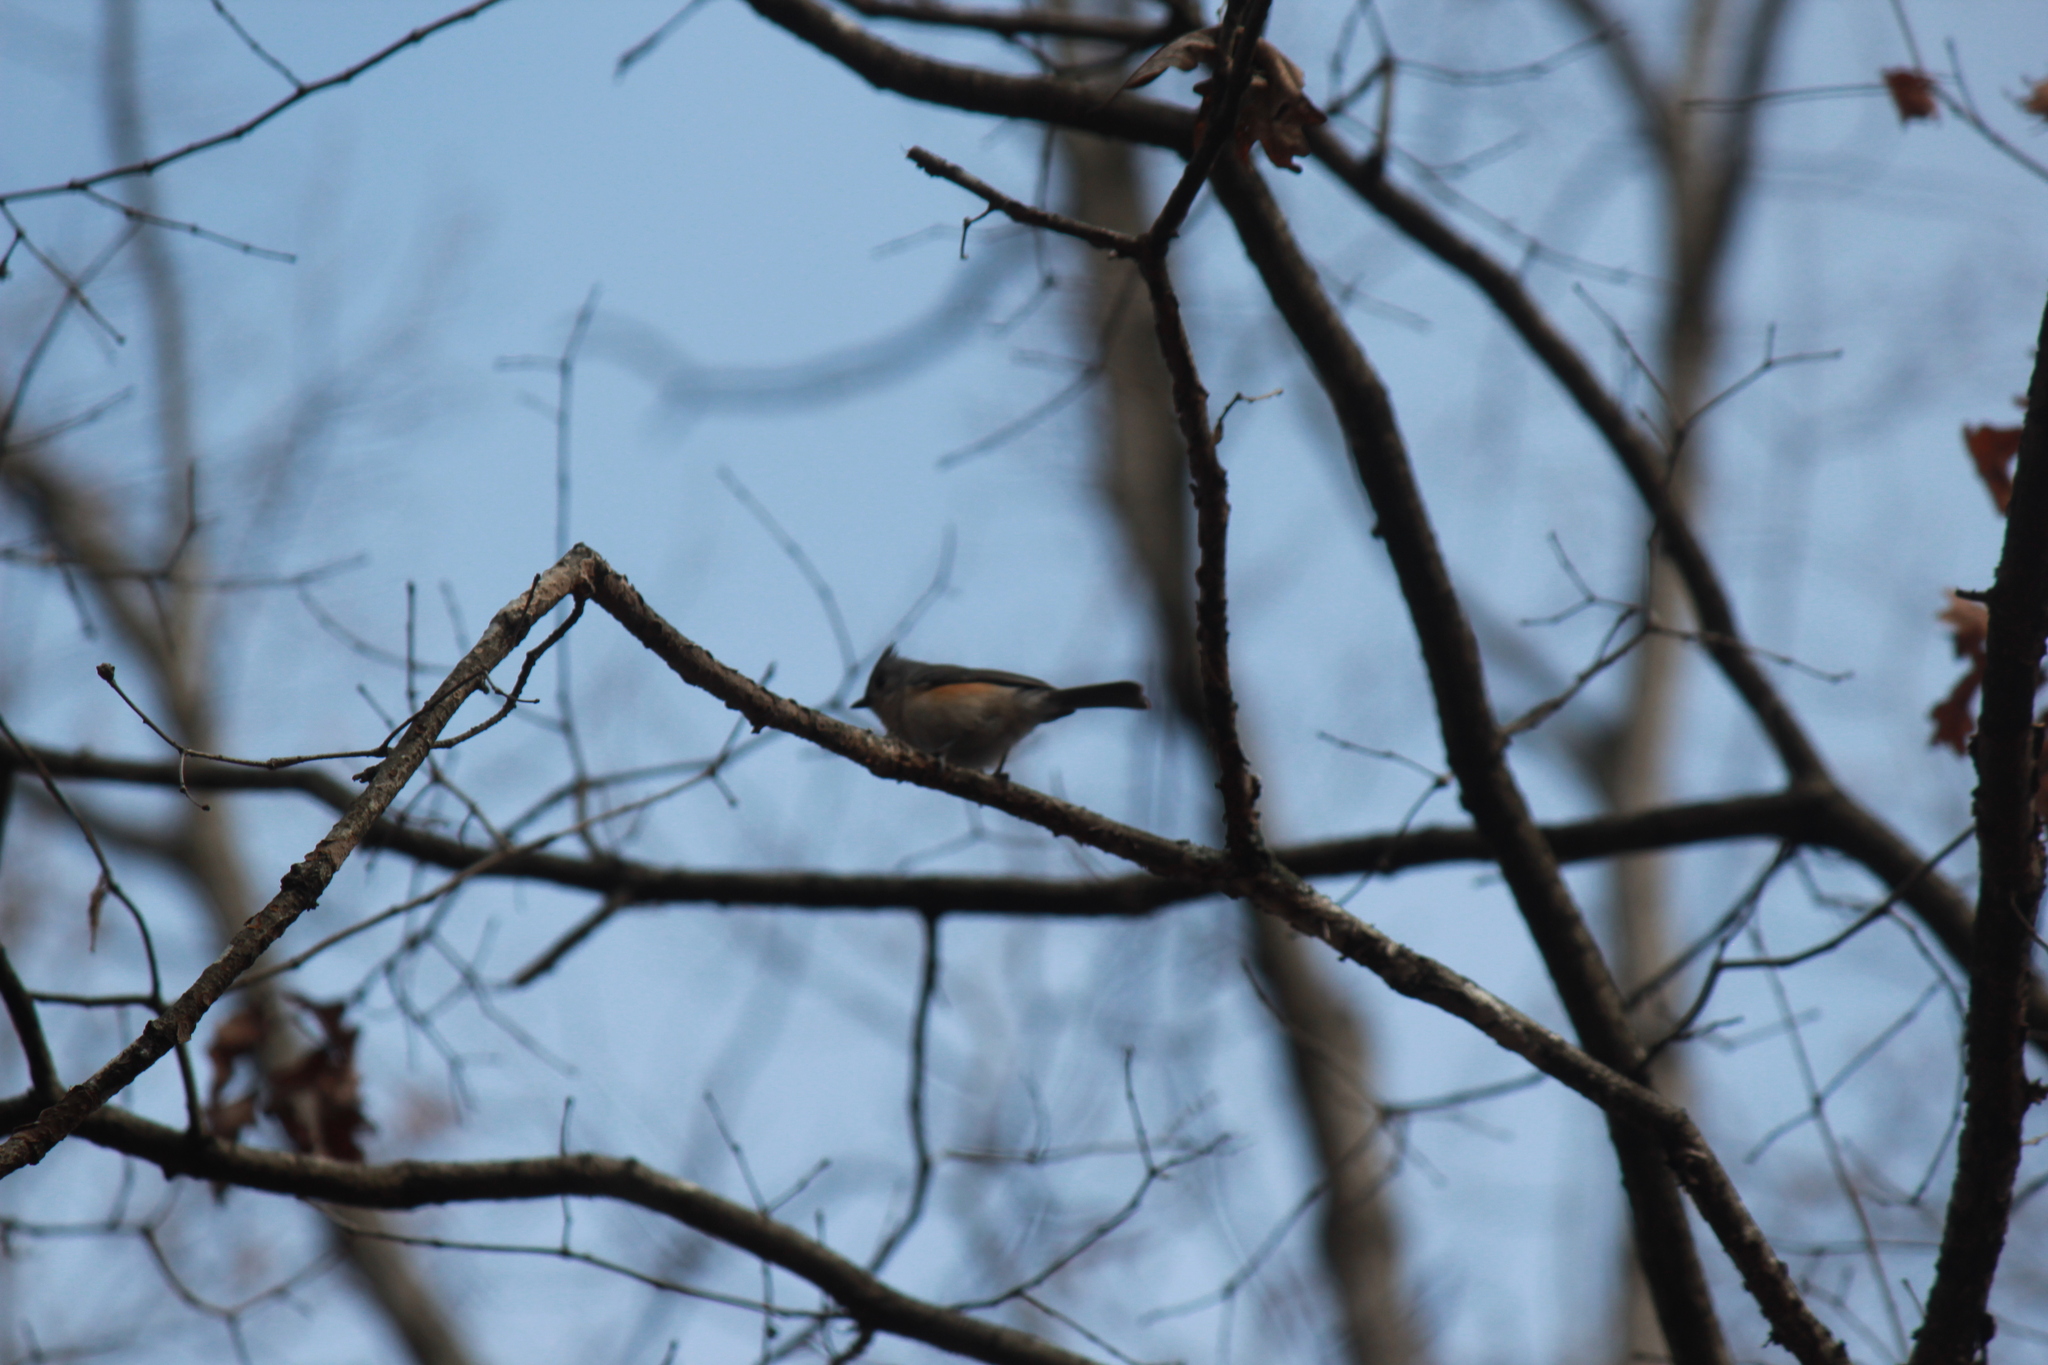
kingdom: Animalia
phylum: Chordata
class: Aves
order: Passeriformes
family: Paridae
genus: Baeolophus
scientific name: Baeolophus bicolor
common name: Tufted titmouse
